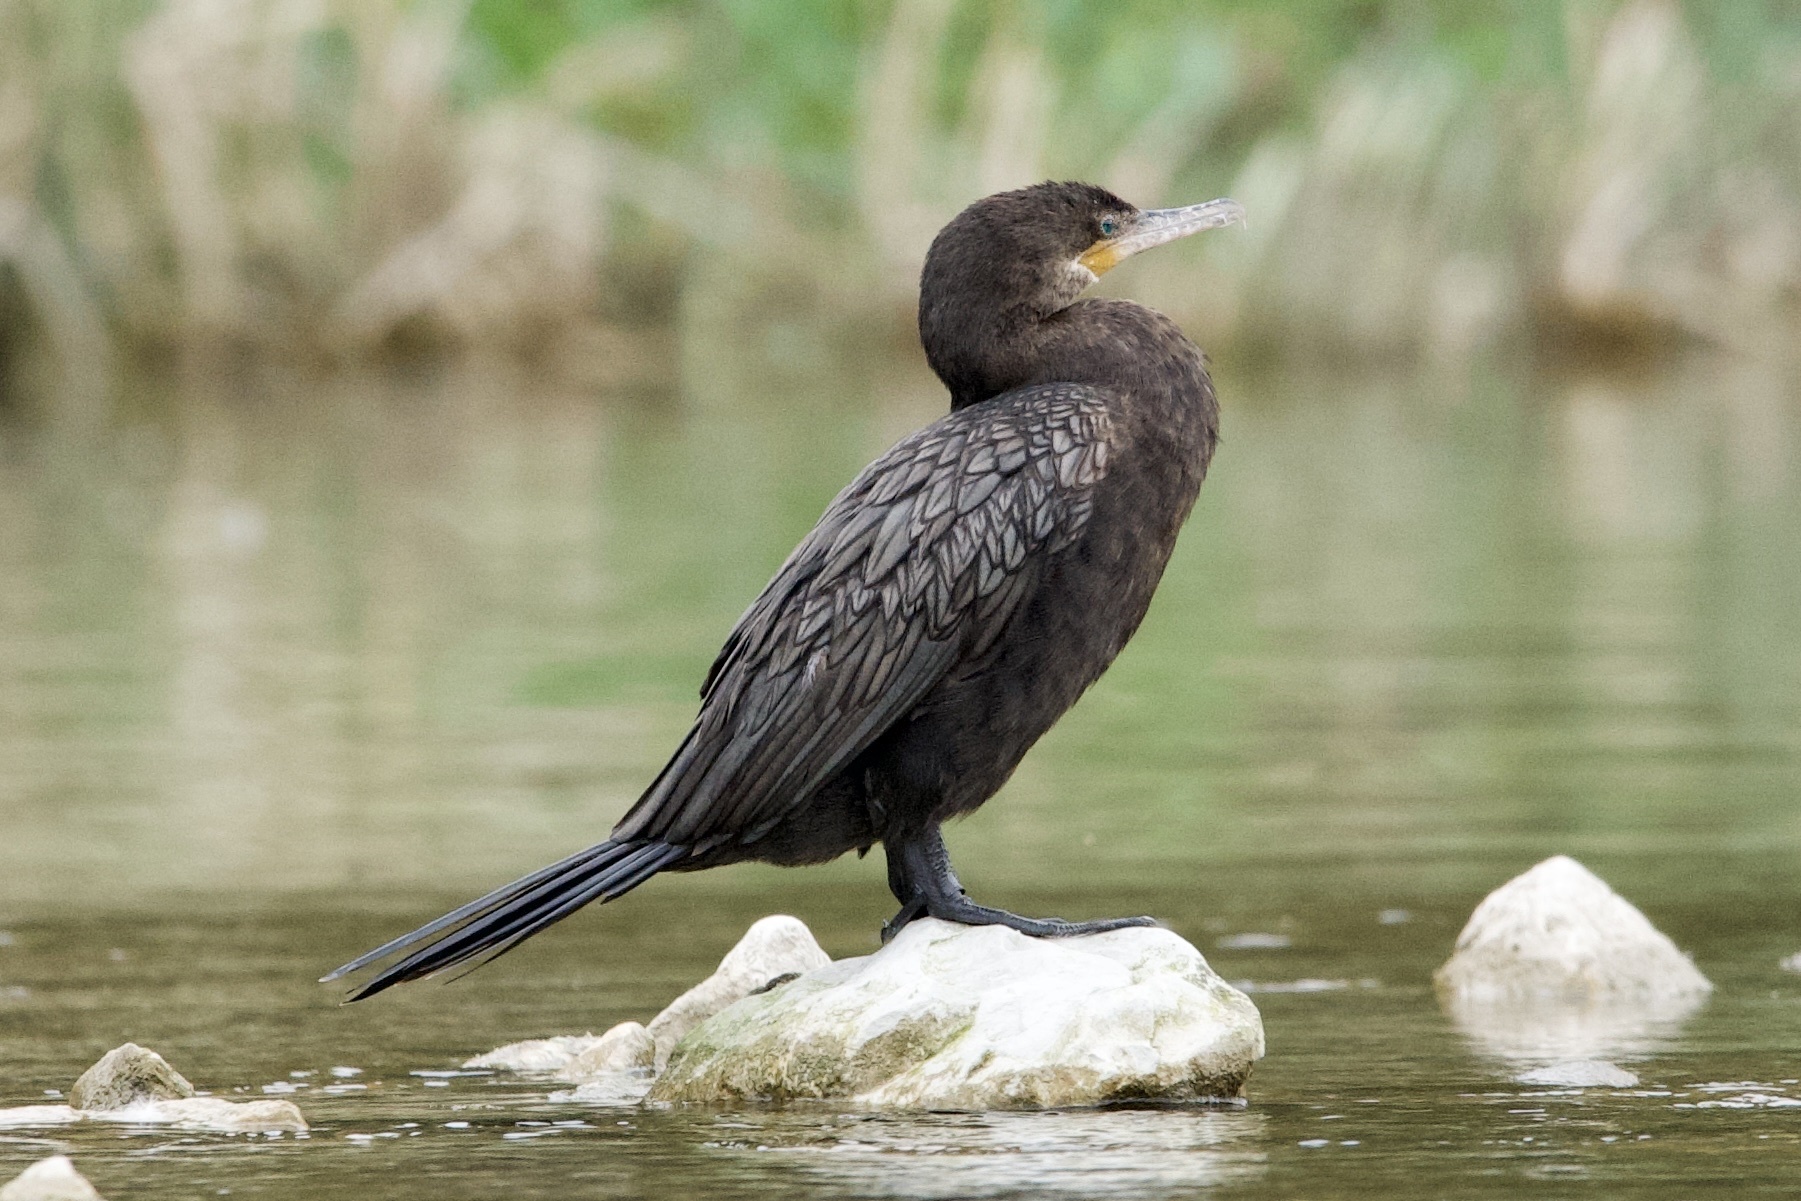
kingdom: Animalia
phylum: Chordata
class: Aves
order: Suliformes
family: Phalacrocoracidae
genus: Phalacrocorax
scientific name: Phalacrocorax brasilianus
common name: Neotropic cormorant
